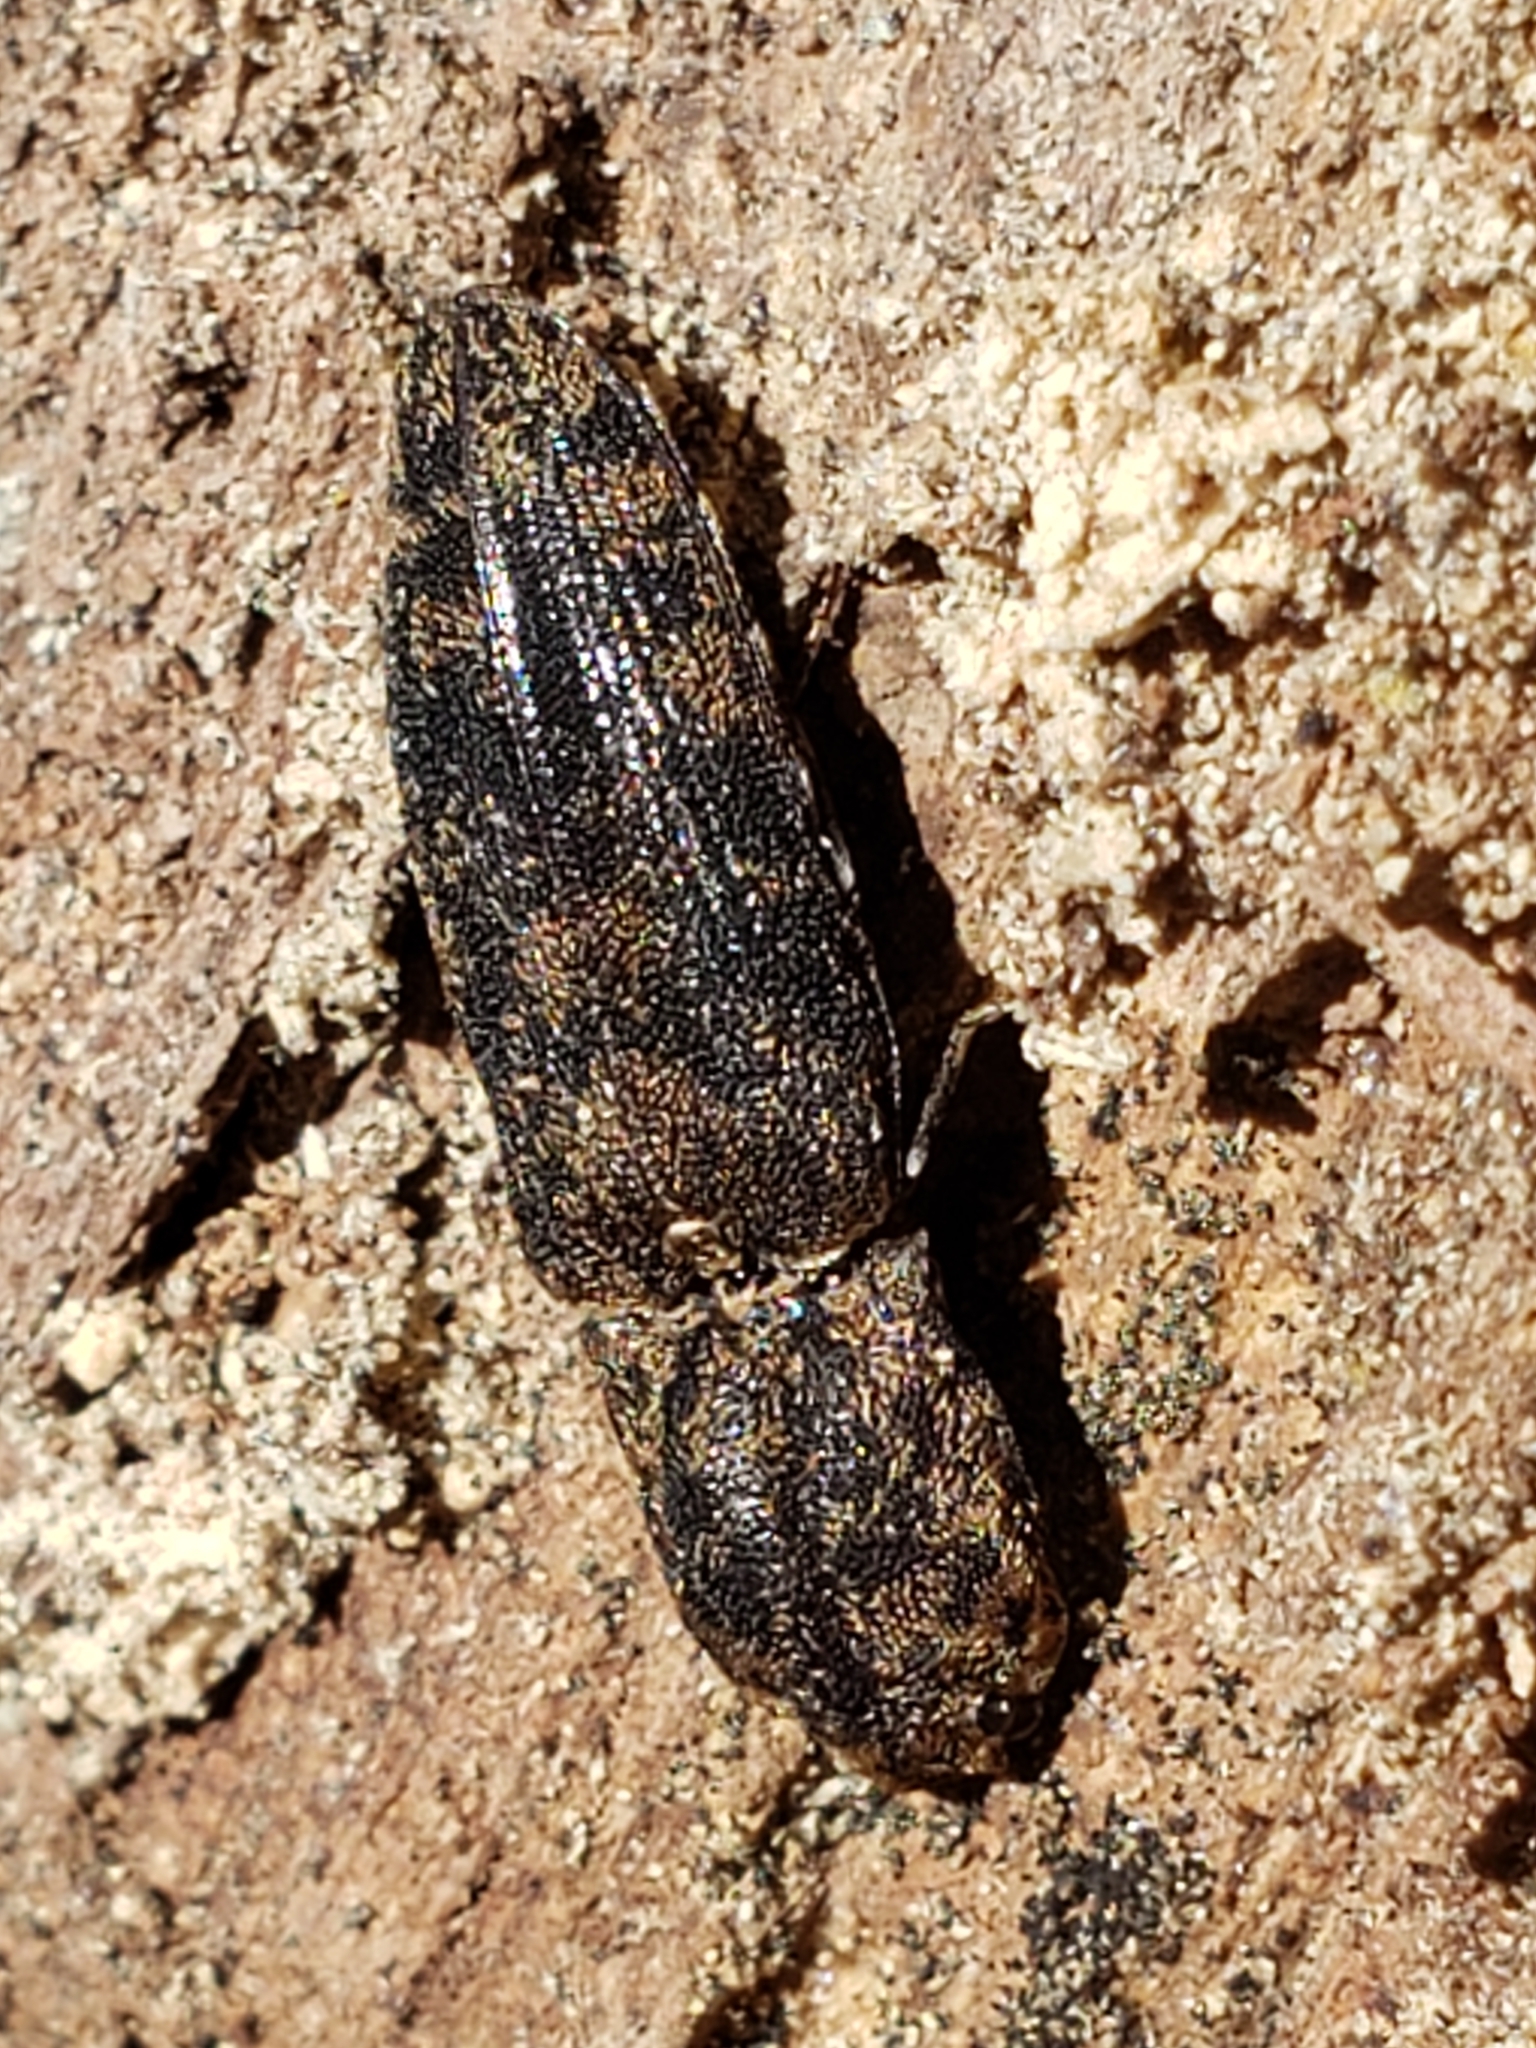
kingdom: Animalia
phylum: Arthropoda
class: Insecta
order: Coleoptera
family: Elateridae
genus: Lacon
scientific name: Lacon marmoratus
